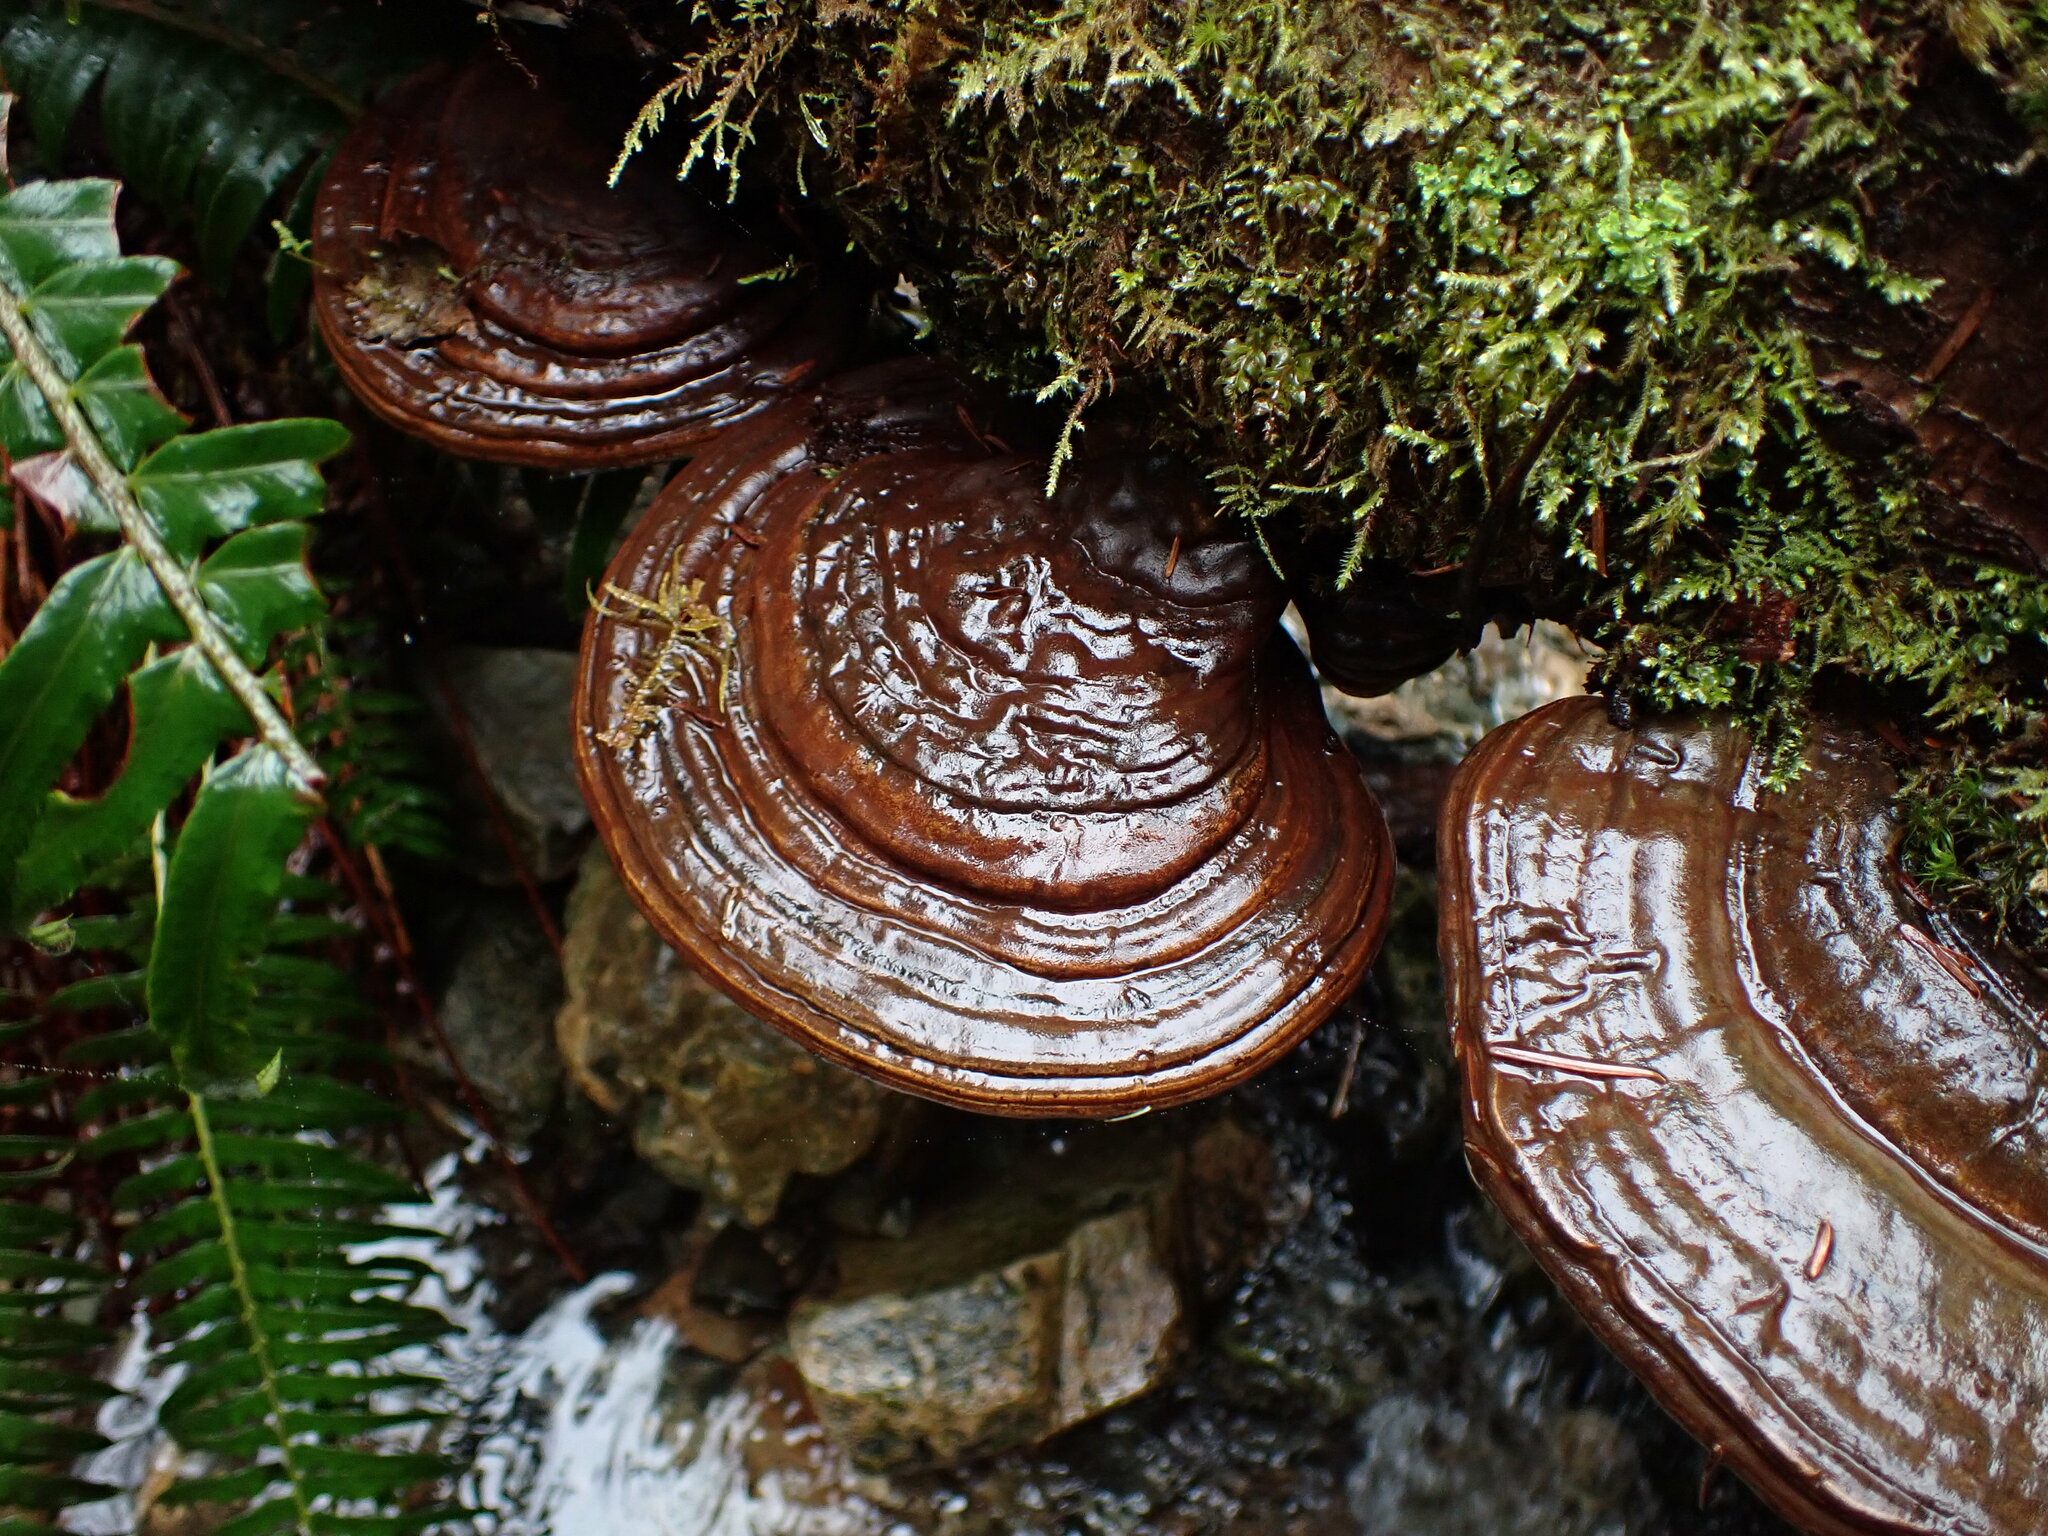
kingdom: Fungi
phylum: Basidiomycota
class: Agaricomycetes
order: Polyporales
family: Polyporaceae
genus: Ganoderma
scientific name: Ganoderma oregonense
